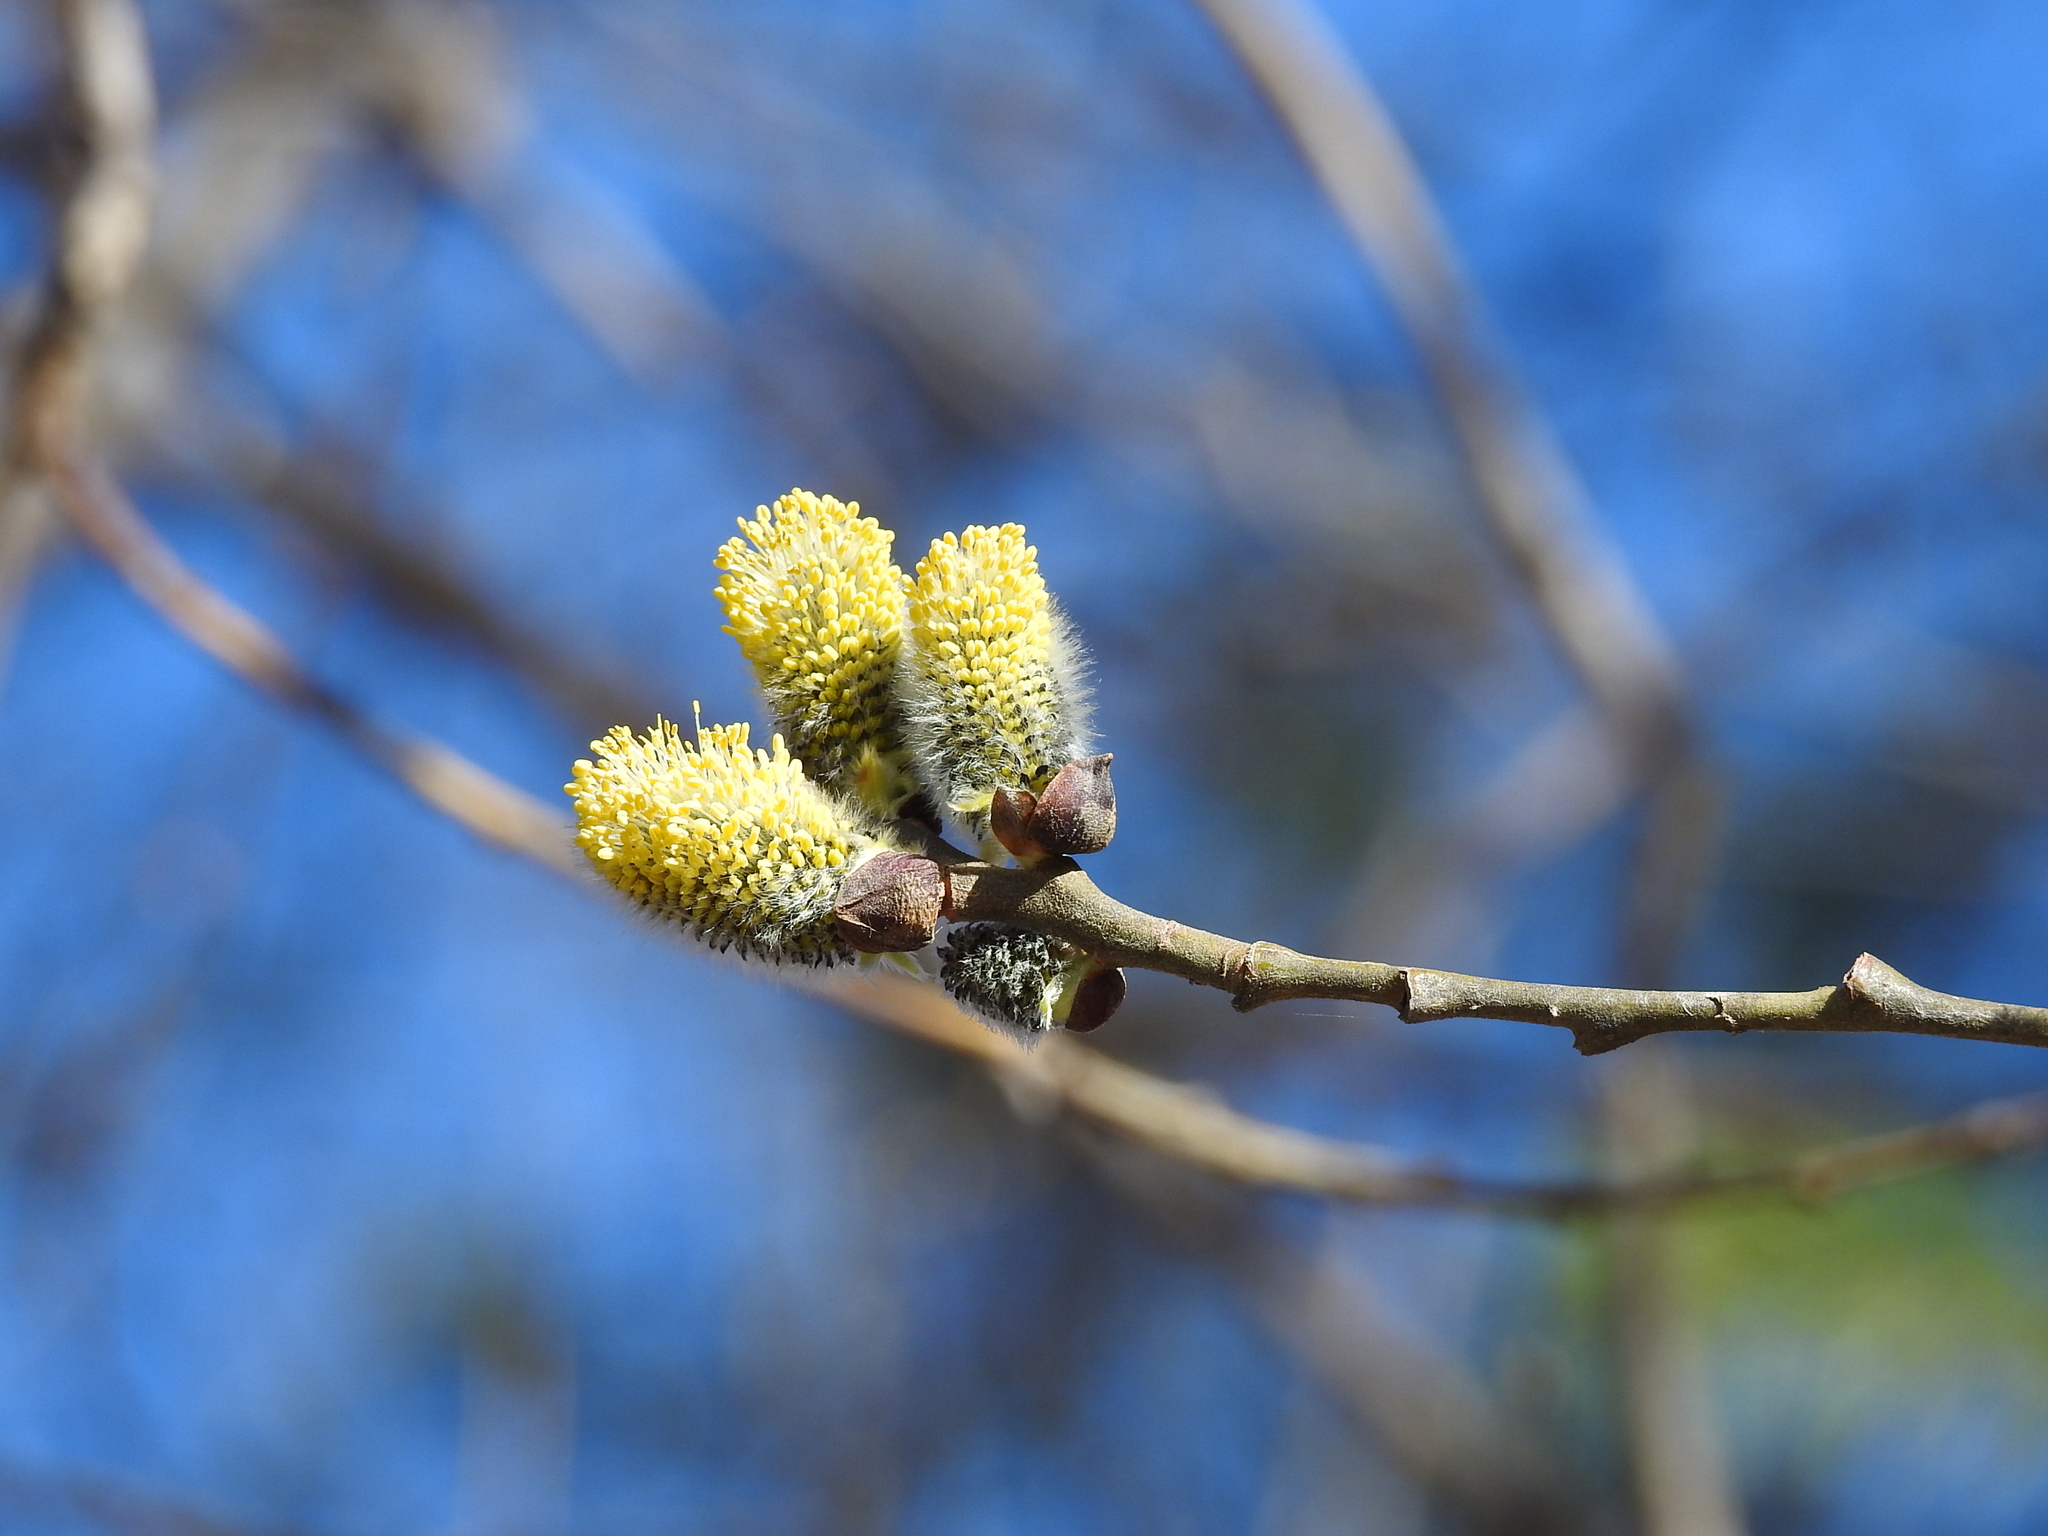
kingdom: Plantae
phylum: Tracheophyta
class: Magnoliopsida
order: Malpighiales
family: Salicaceae
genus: Salix
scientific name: Salix caprea
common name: Goat willow
